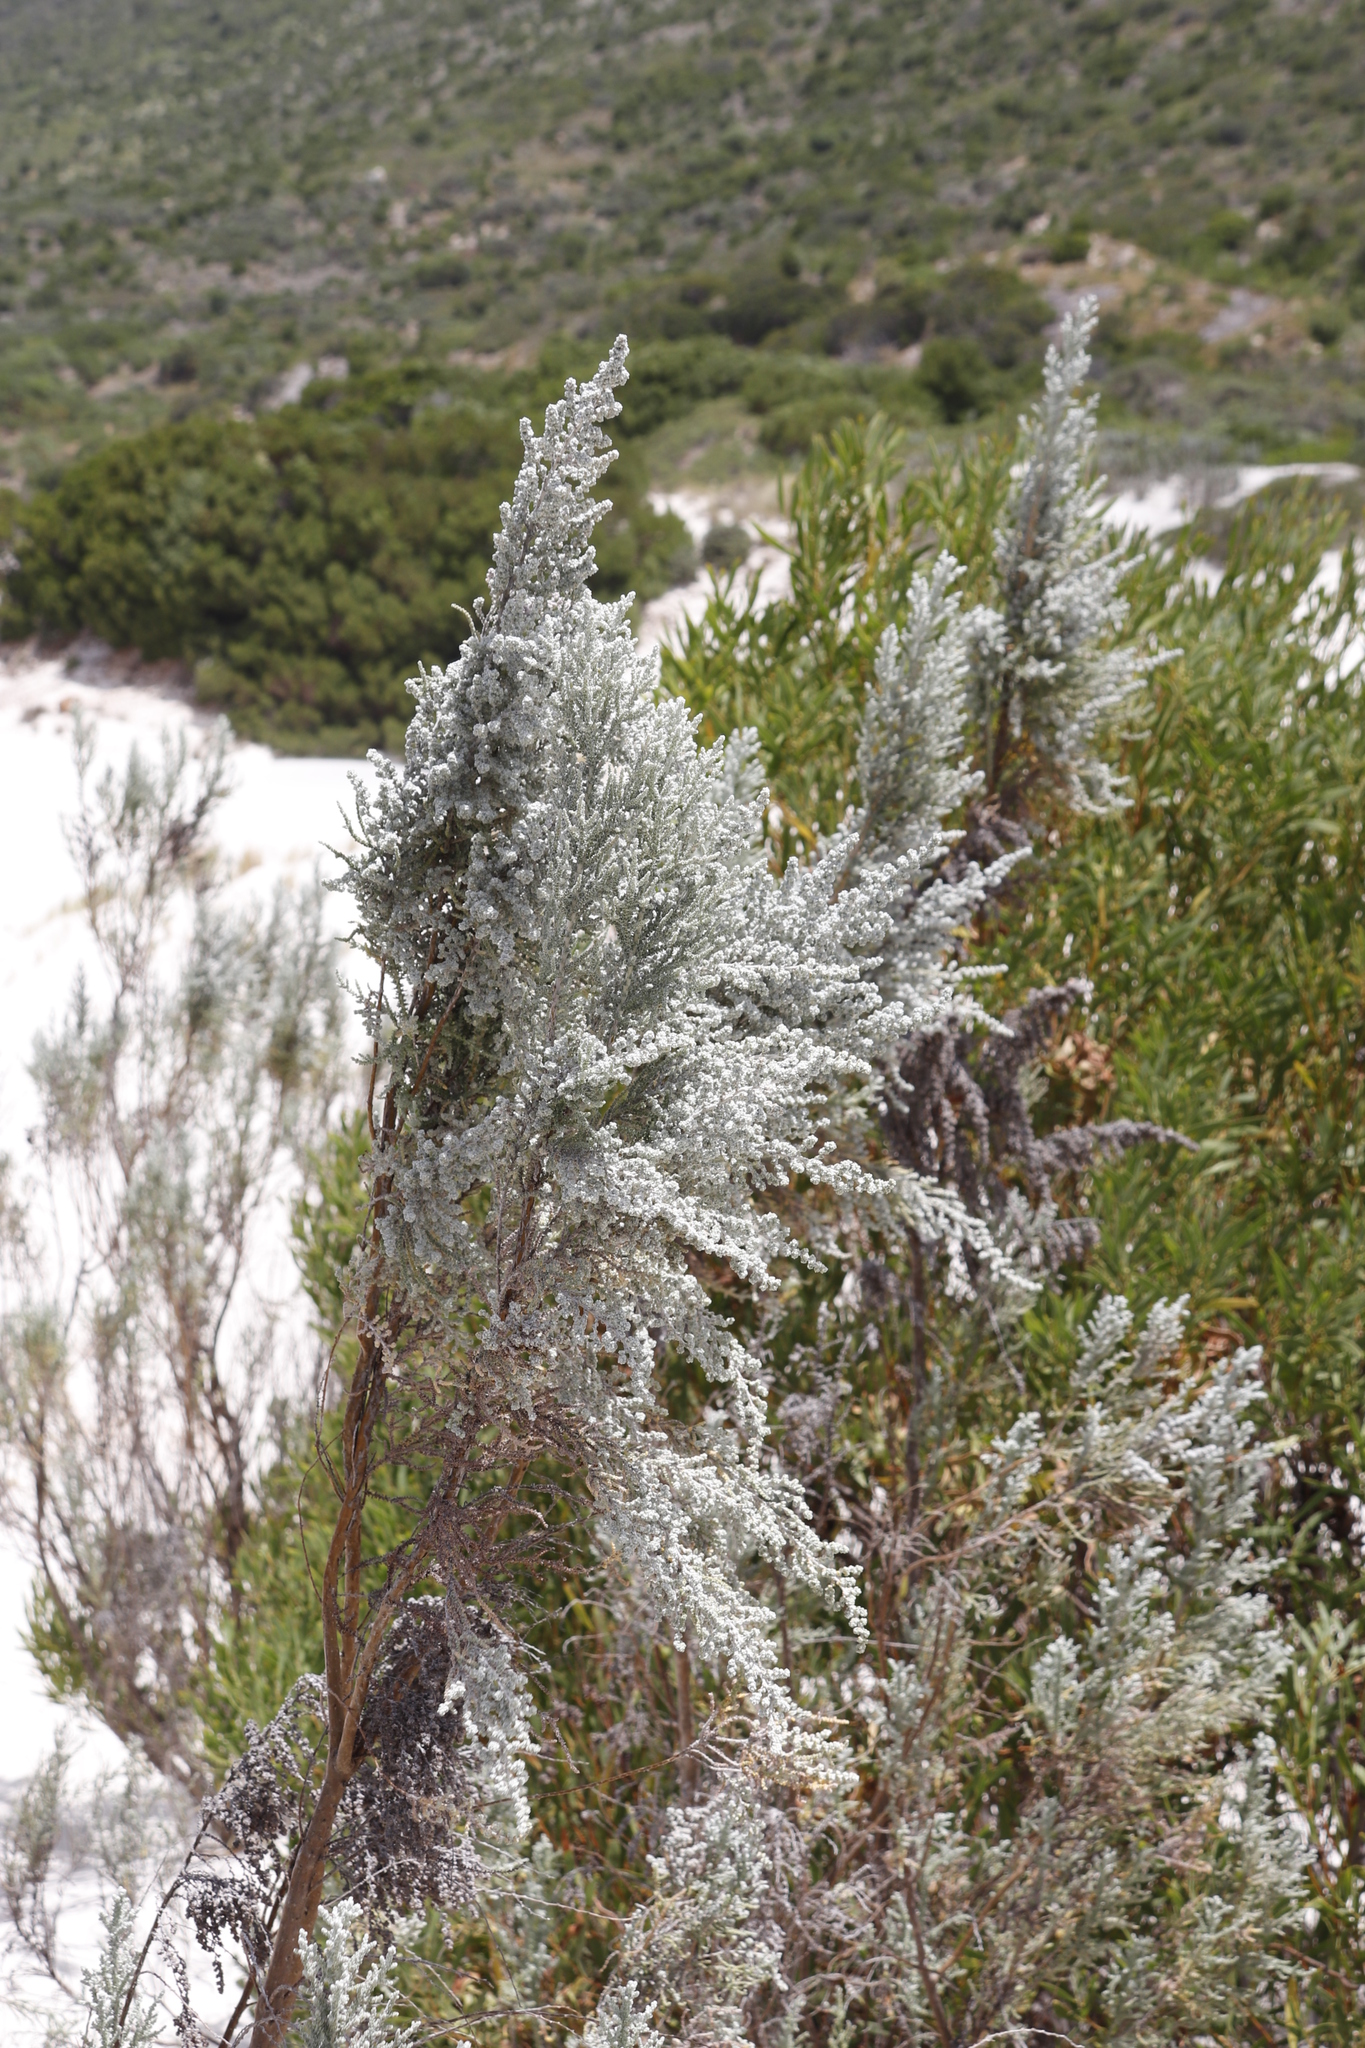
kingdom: Plantae
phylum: Tracheophyta
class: Magnoliopsida
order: Asterales
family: Asteraceae
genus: Seriphium
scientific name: Seriphium plumosum
